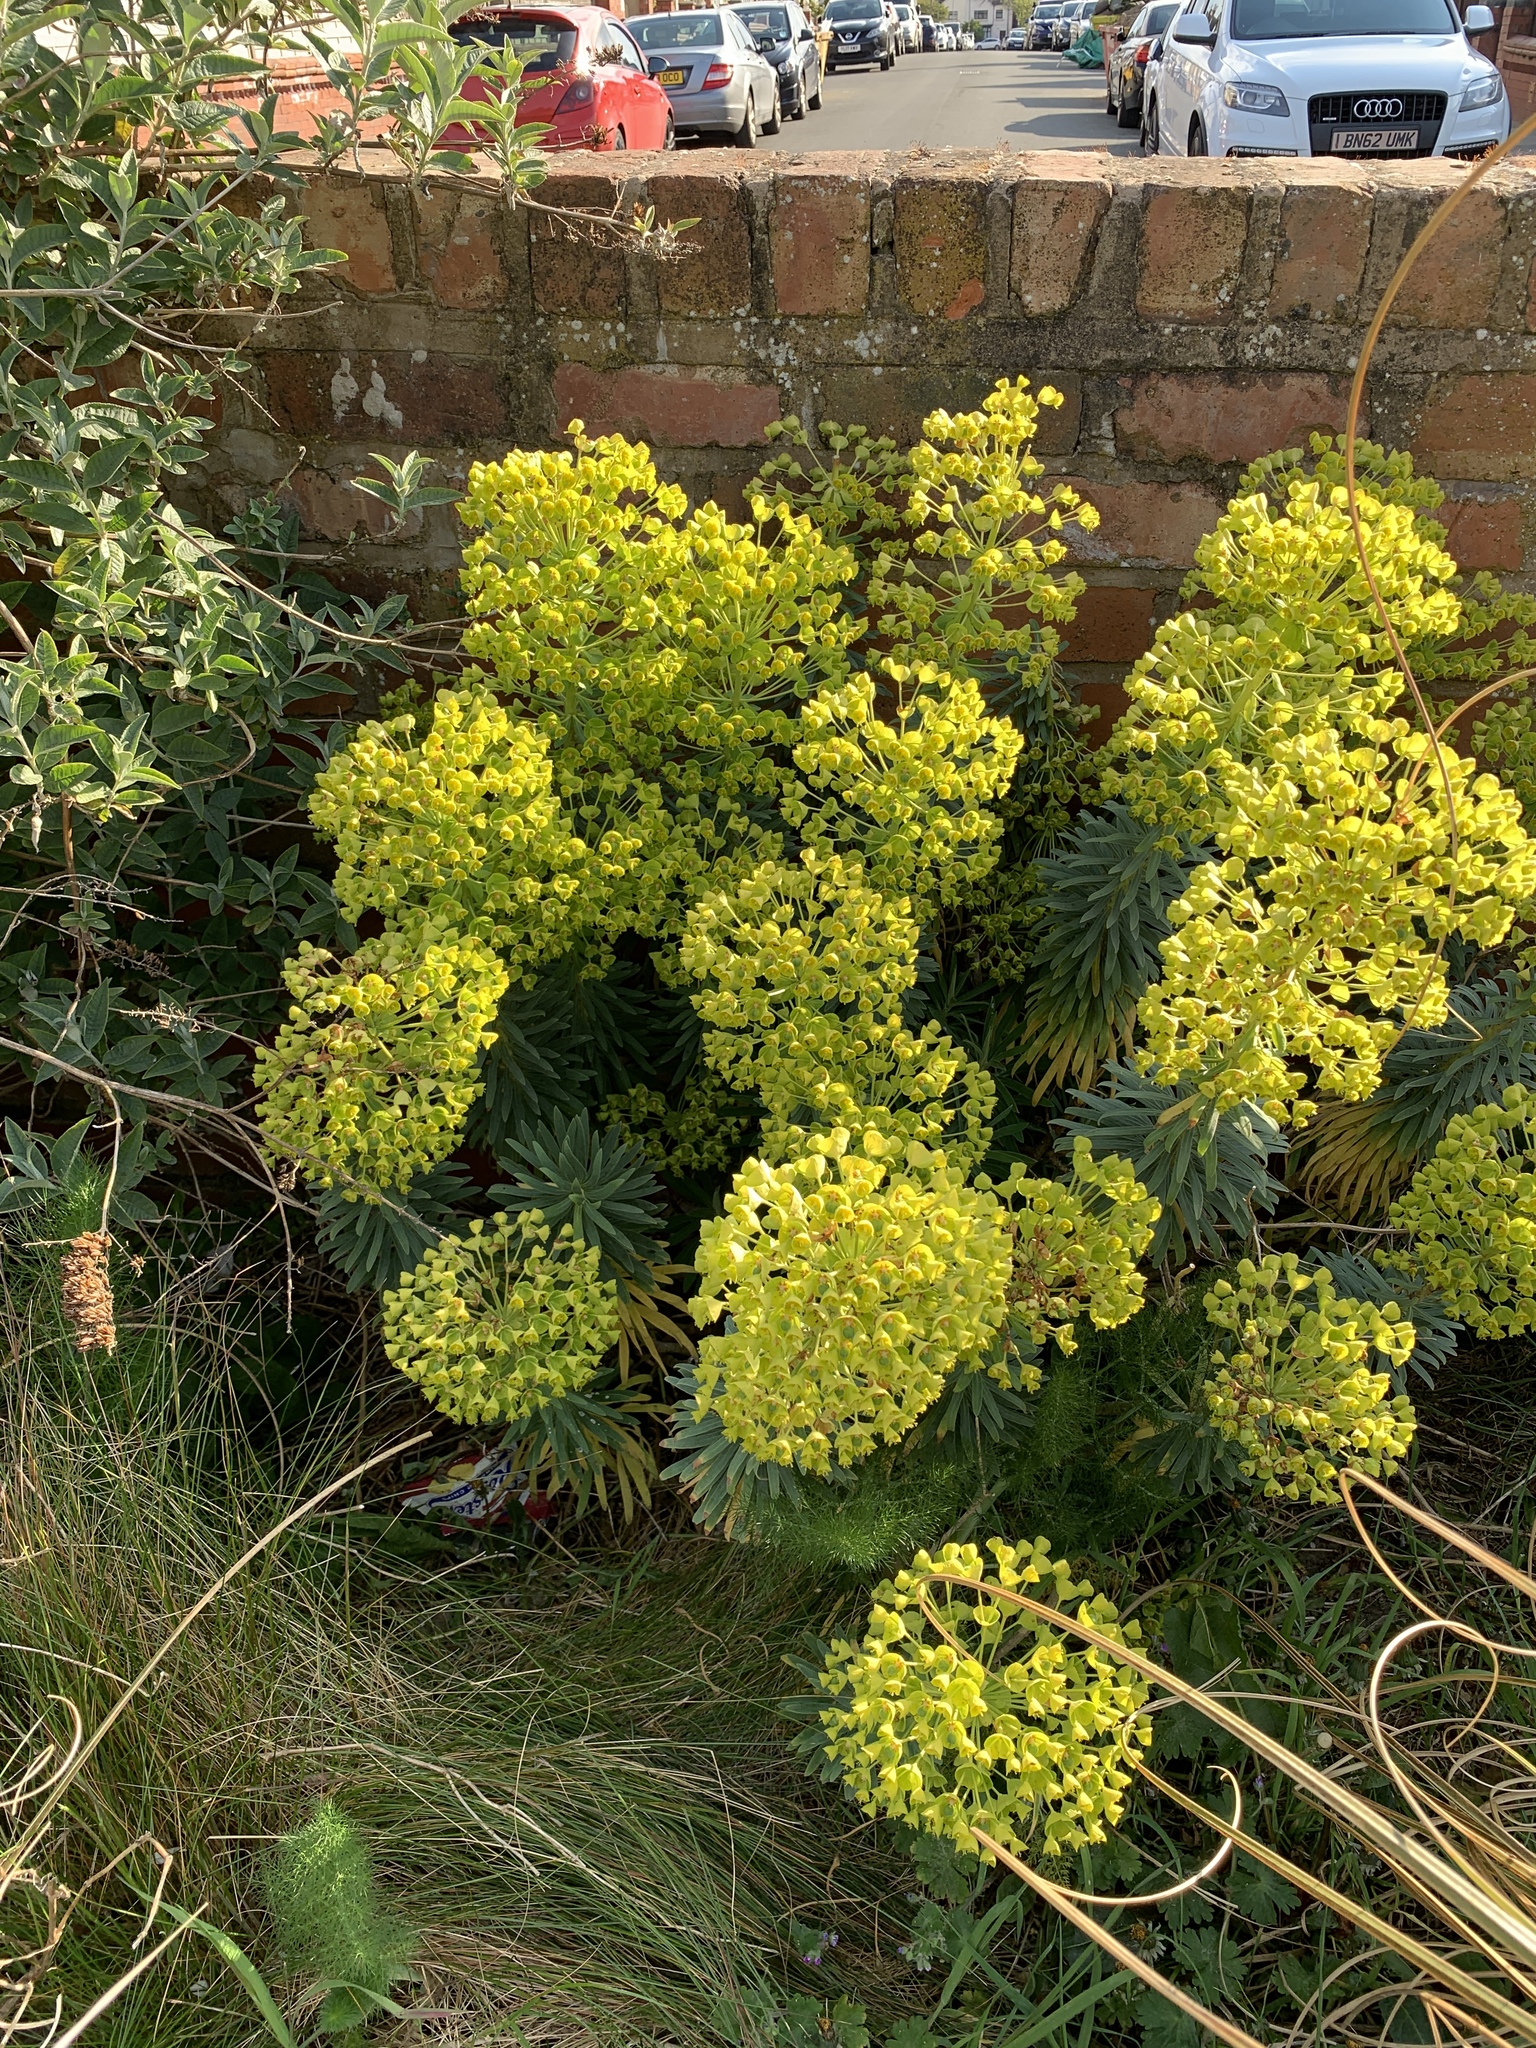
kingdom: Plantae
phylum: Tracheophyta
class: Magnoliopsida
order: Malpighiales
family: Euphorbiaceae
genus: Euphorbia
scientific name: Euphorbia characias
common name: Mediterranean spurge
